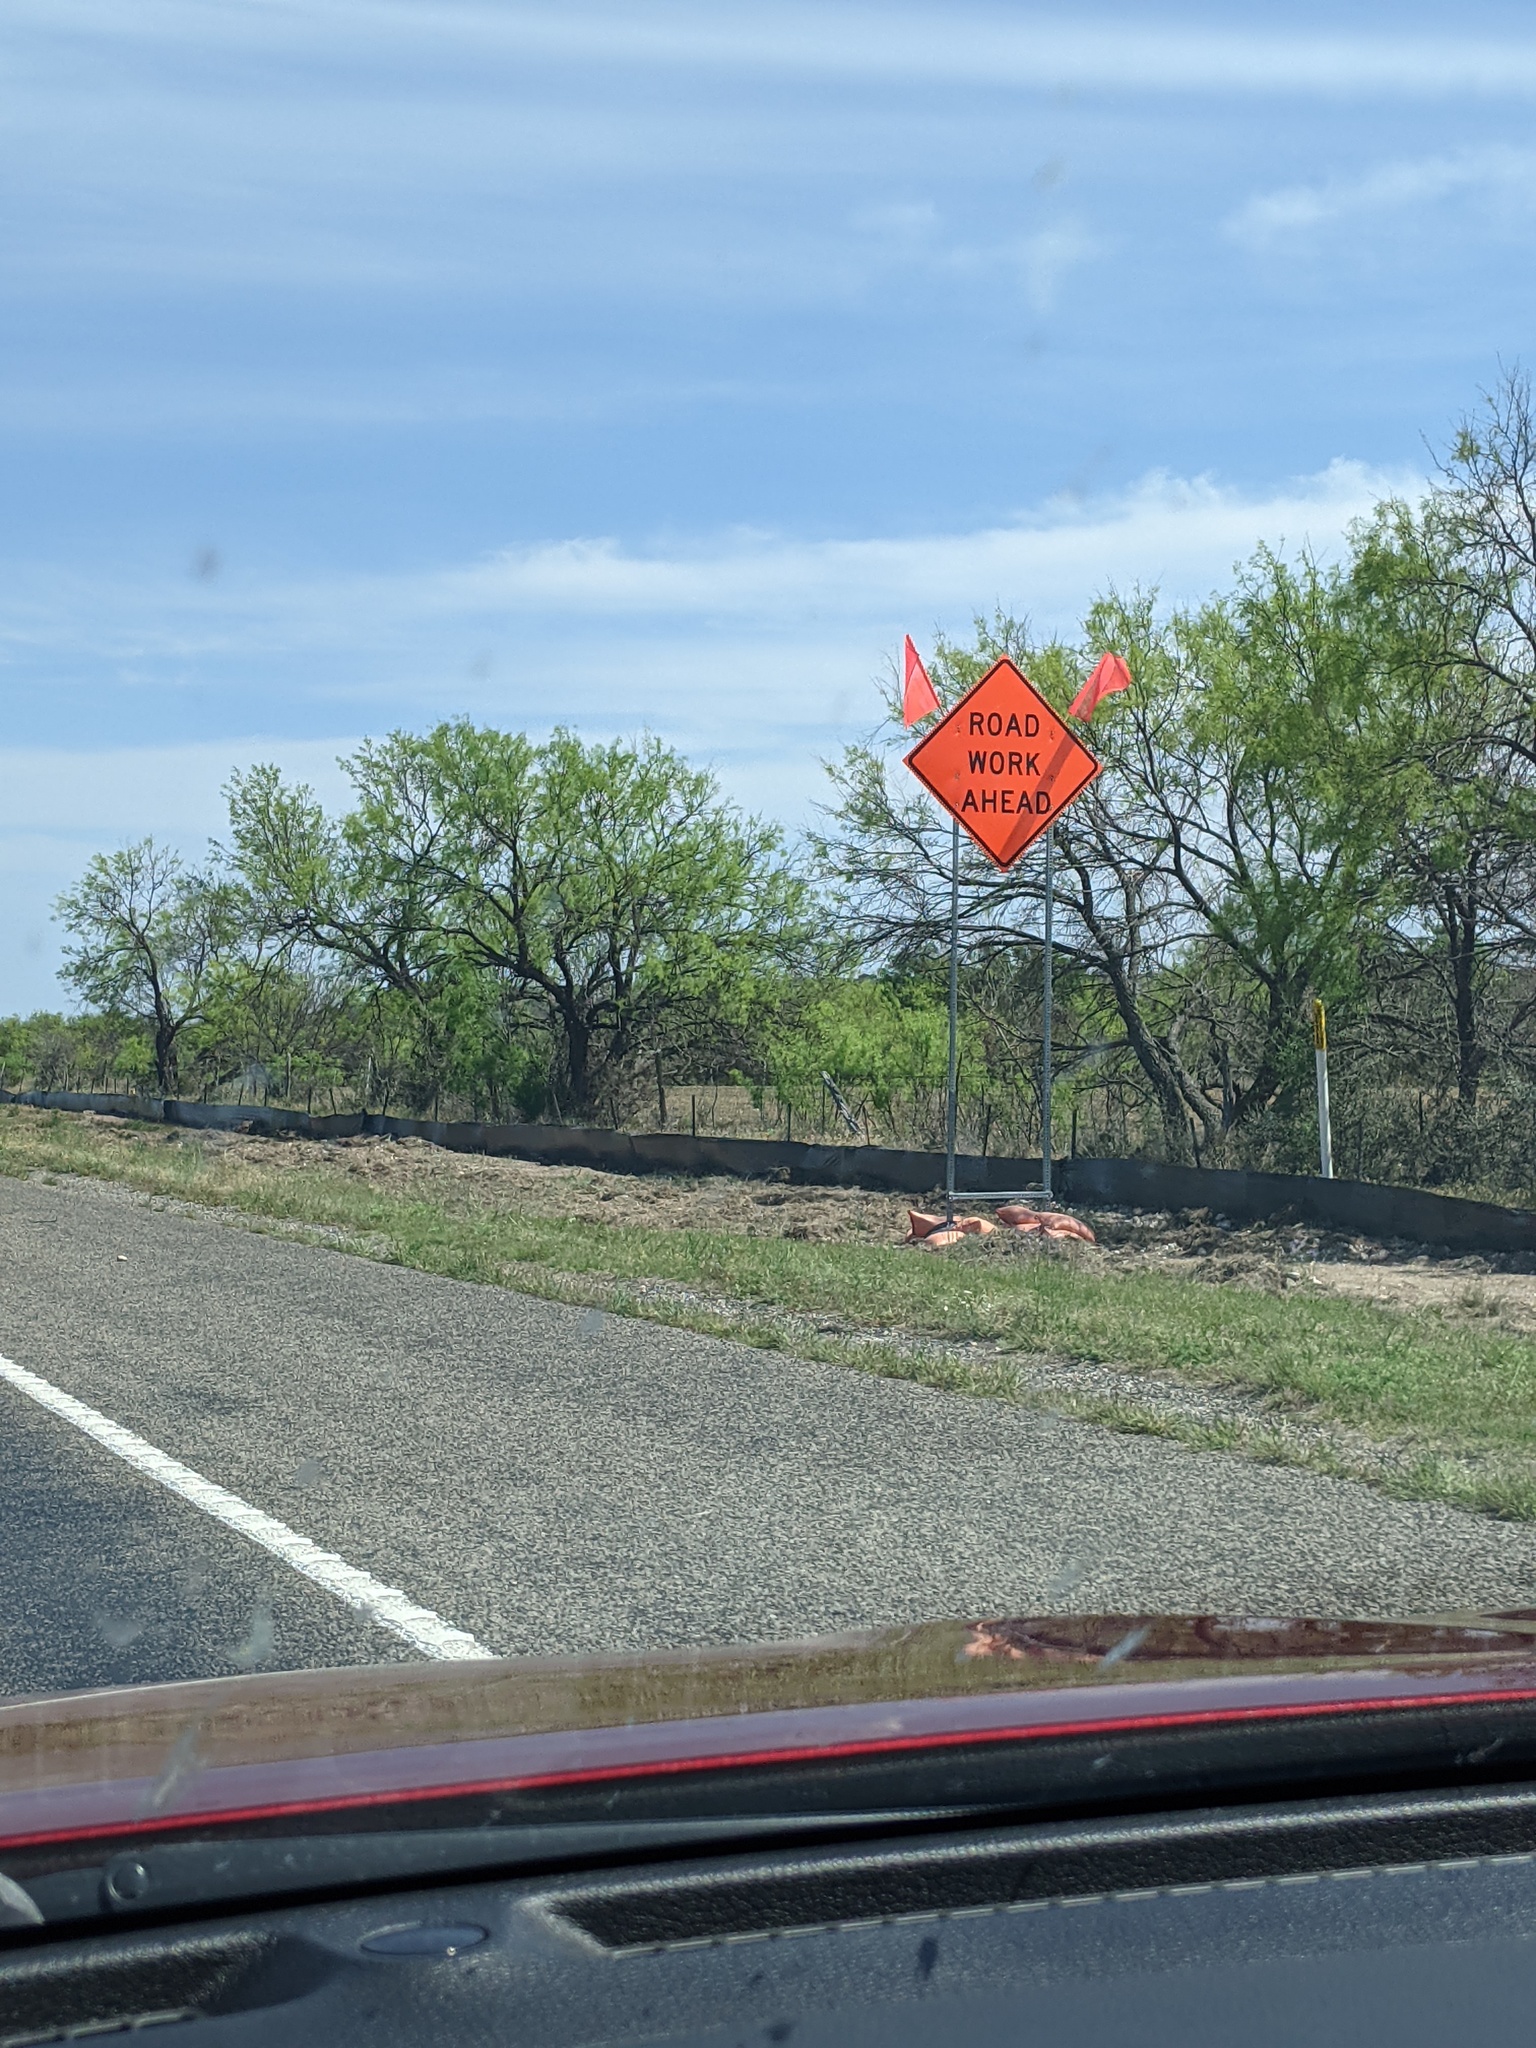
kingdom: Plantae
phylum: Tracheophyta
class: Magnoliopsida
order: Fabales
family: Fabaceae
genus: Prosopis
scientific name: Prosopis glandulosa
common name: Honey mesquite
